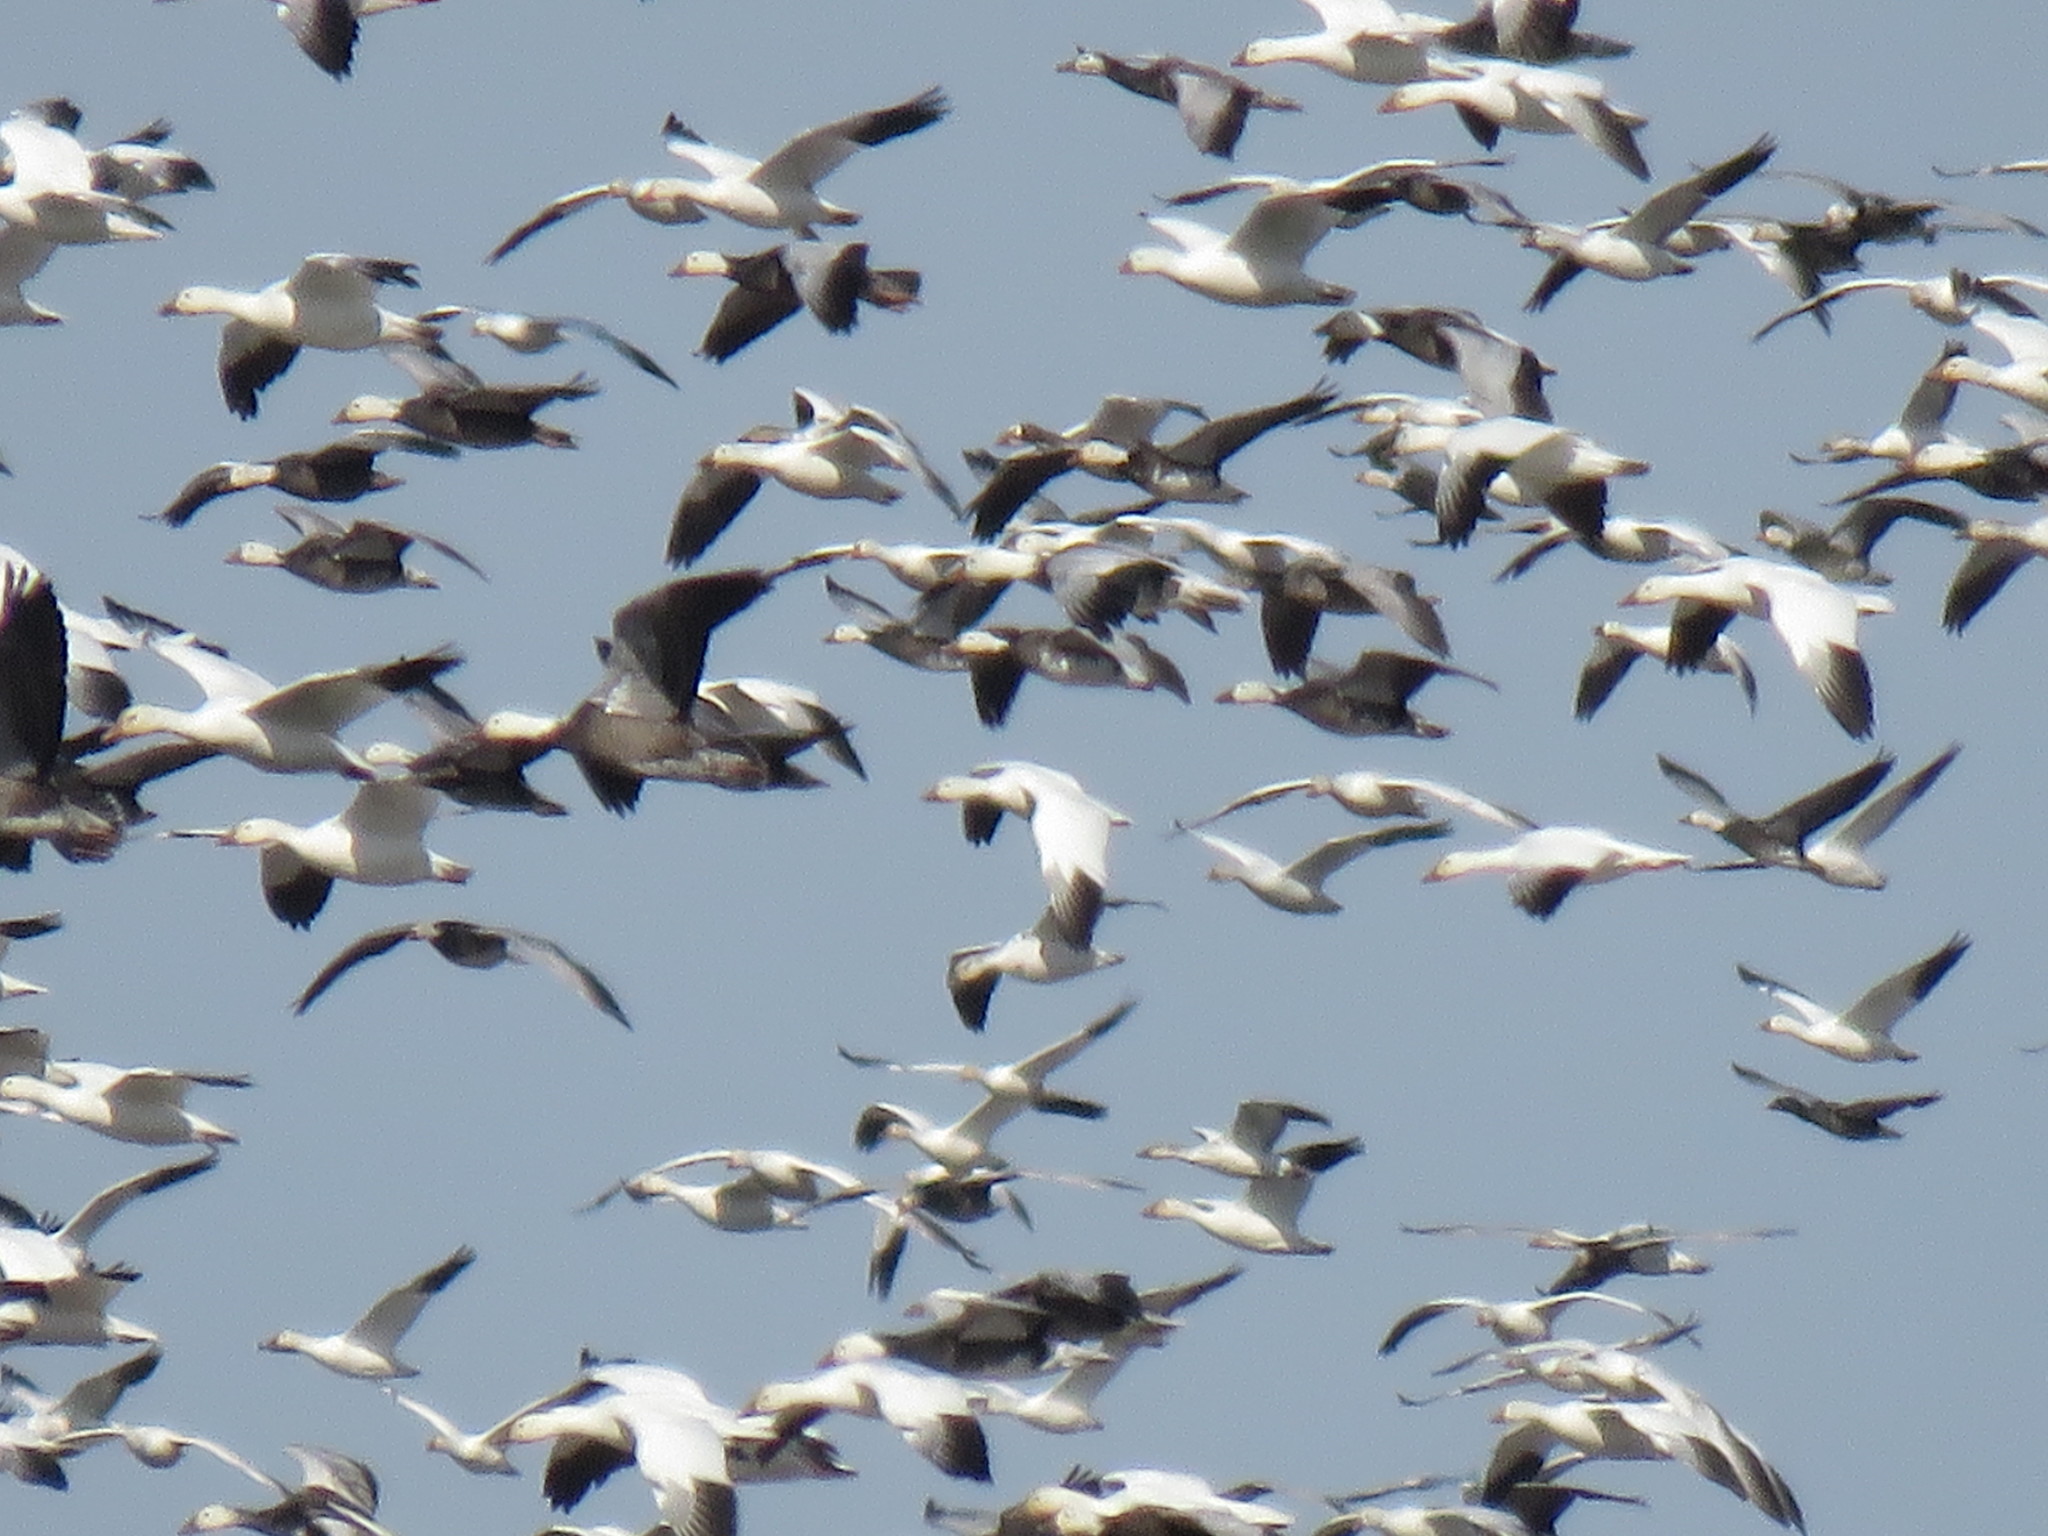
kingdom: Animalia
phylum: Chordata
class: Aves
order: Anseriformes
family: Anatidae
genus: Anser
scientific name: Anser caerulescens
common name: Snow goose
